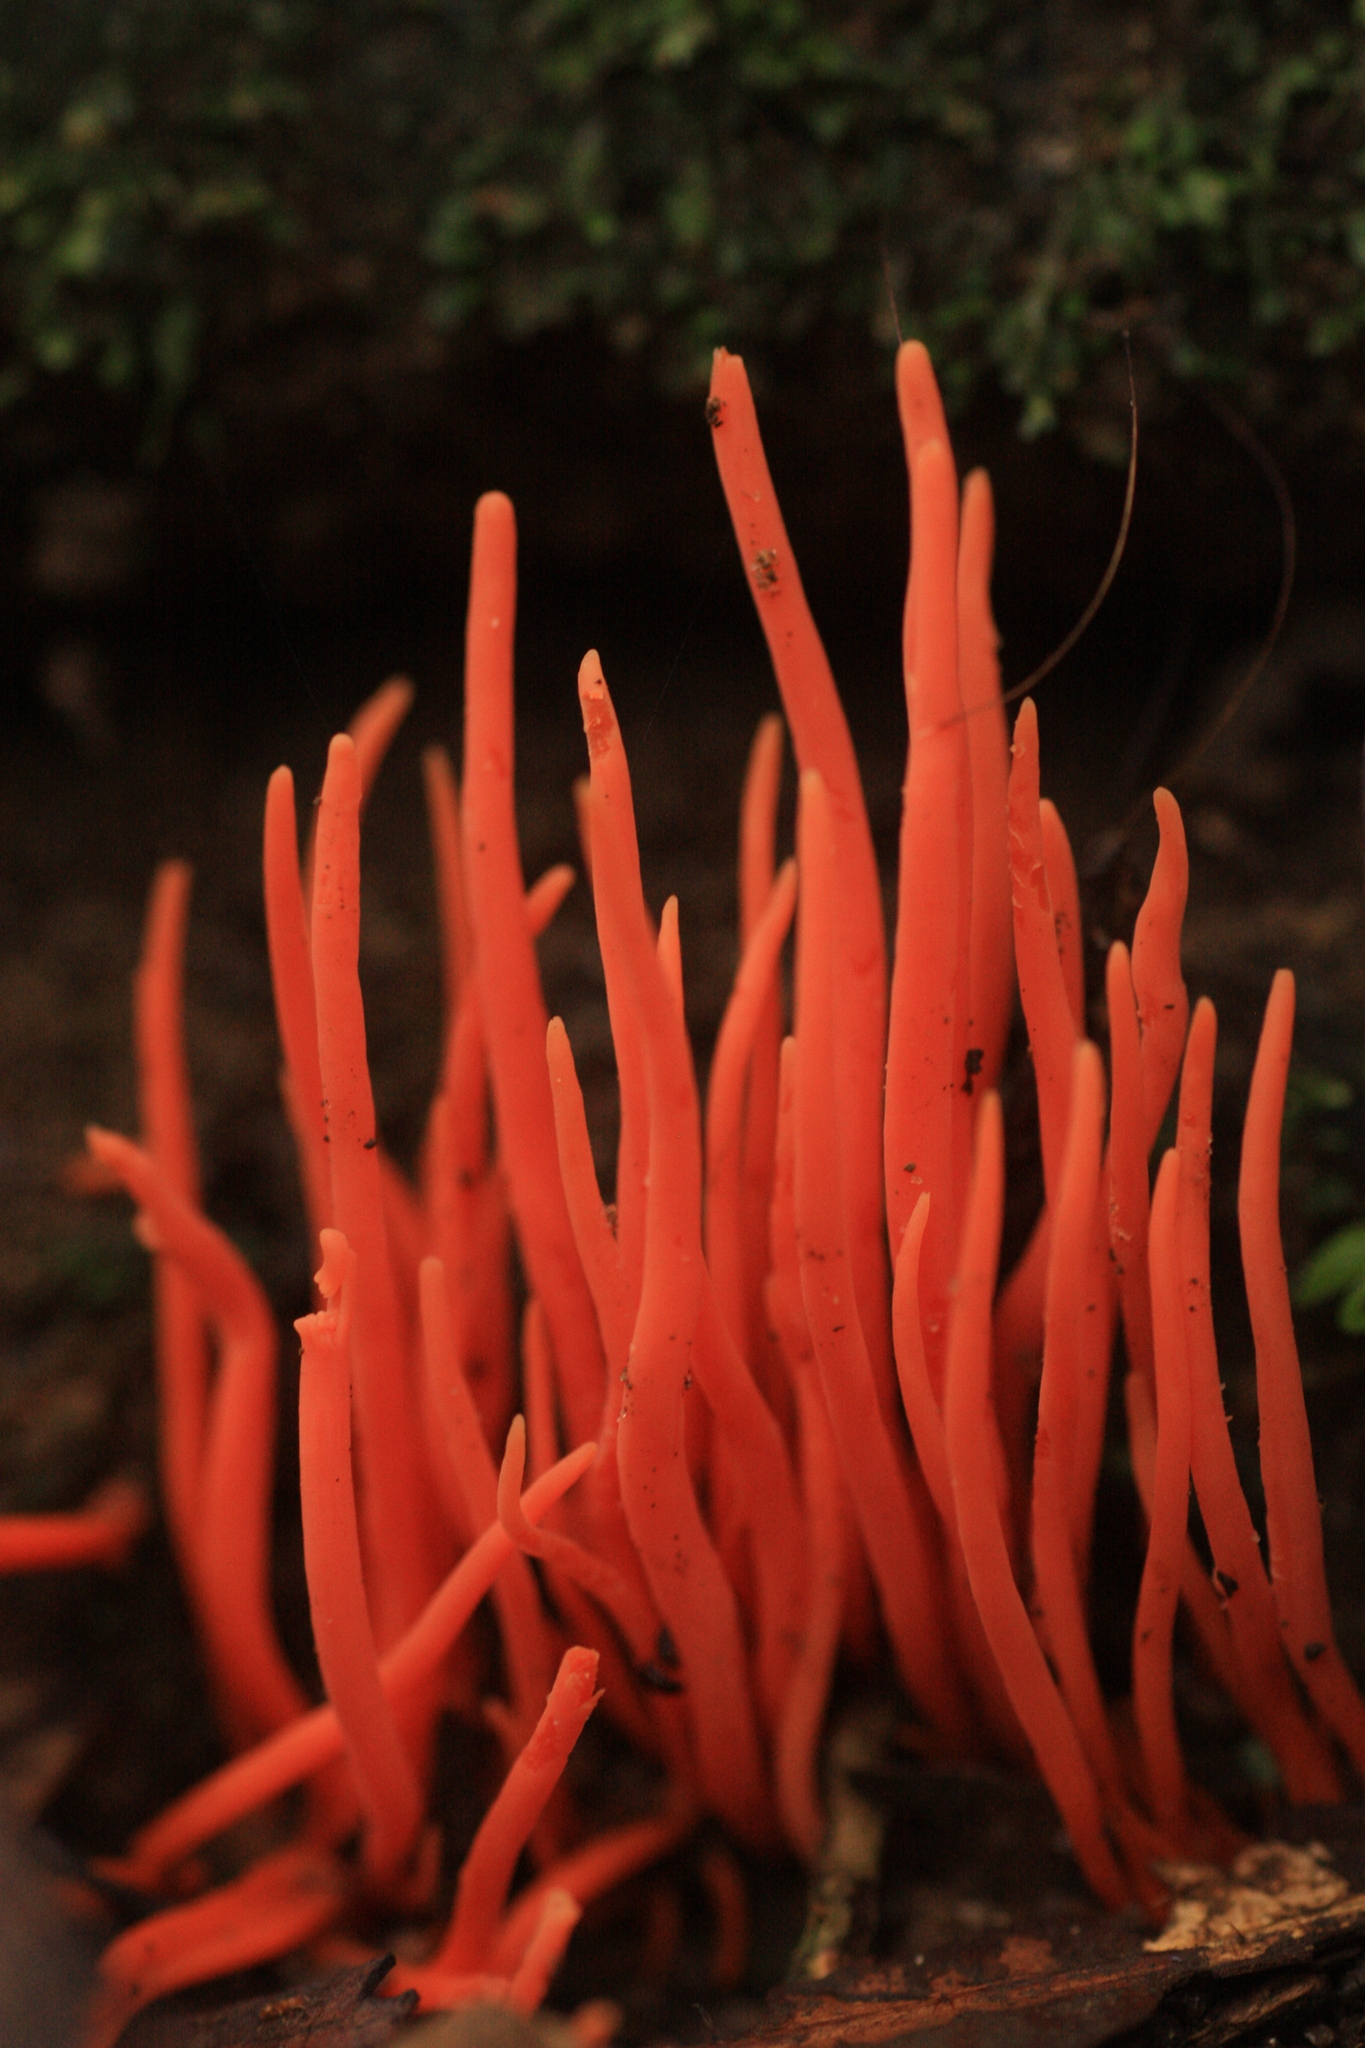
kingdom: Fungi
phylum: Basidiomycota
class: Agaricomycetes
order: Agaricales
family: Clavariaceae
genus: Clavulinopsis
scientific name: Clavulinopsis corallinorosacea
